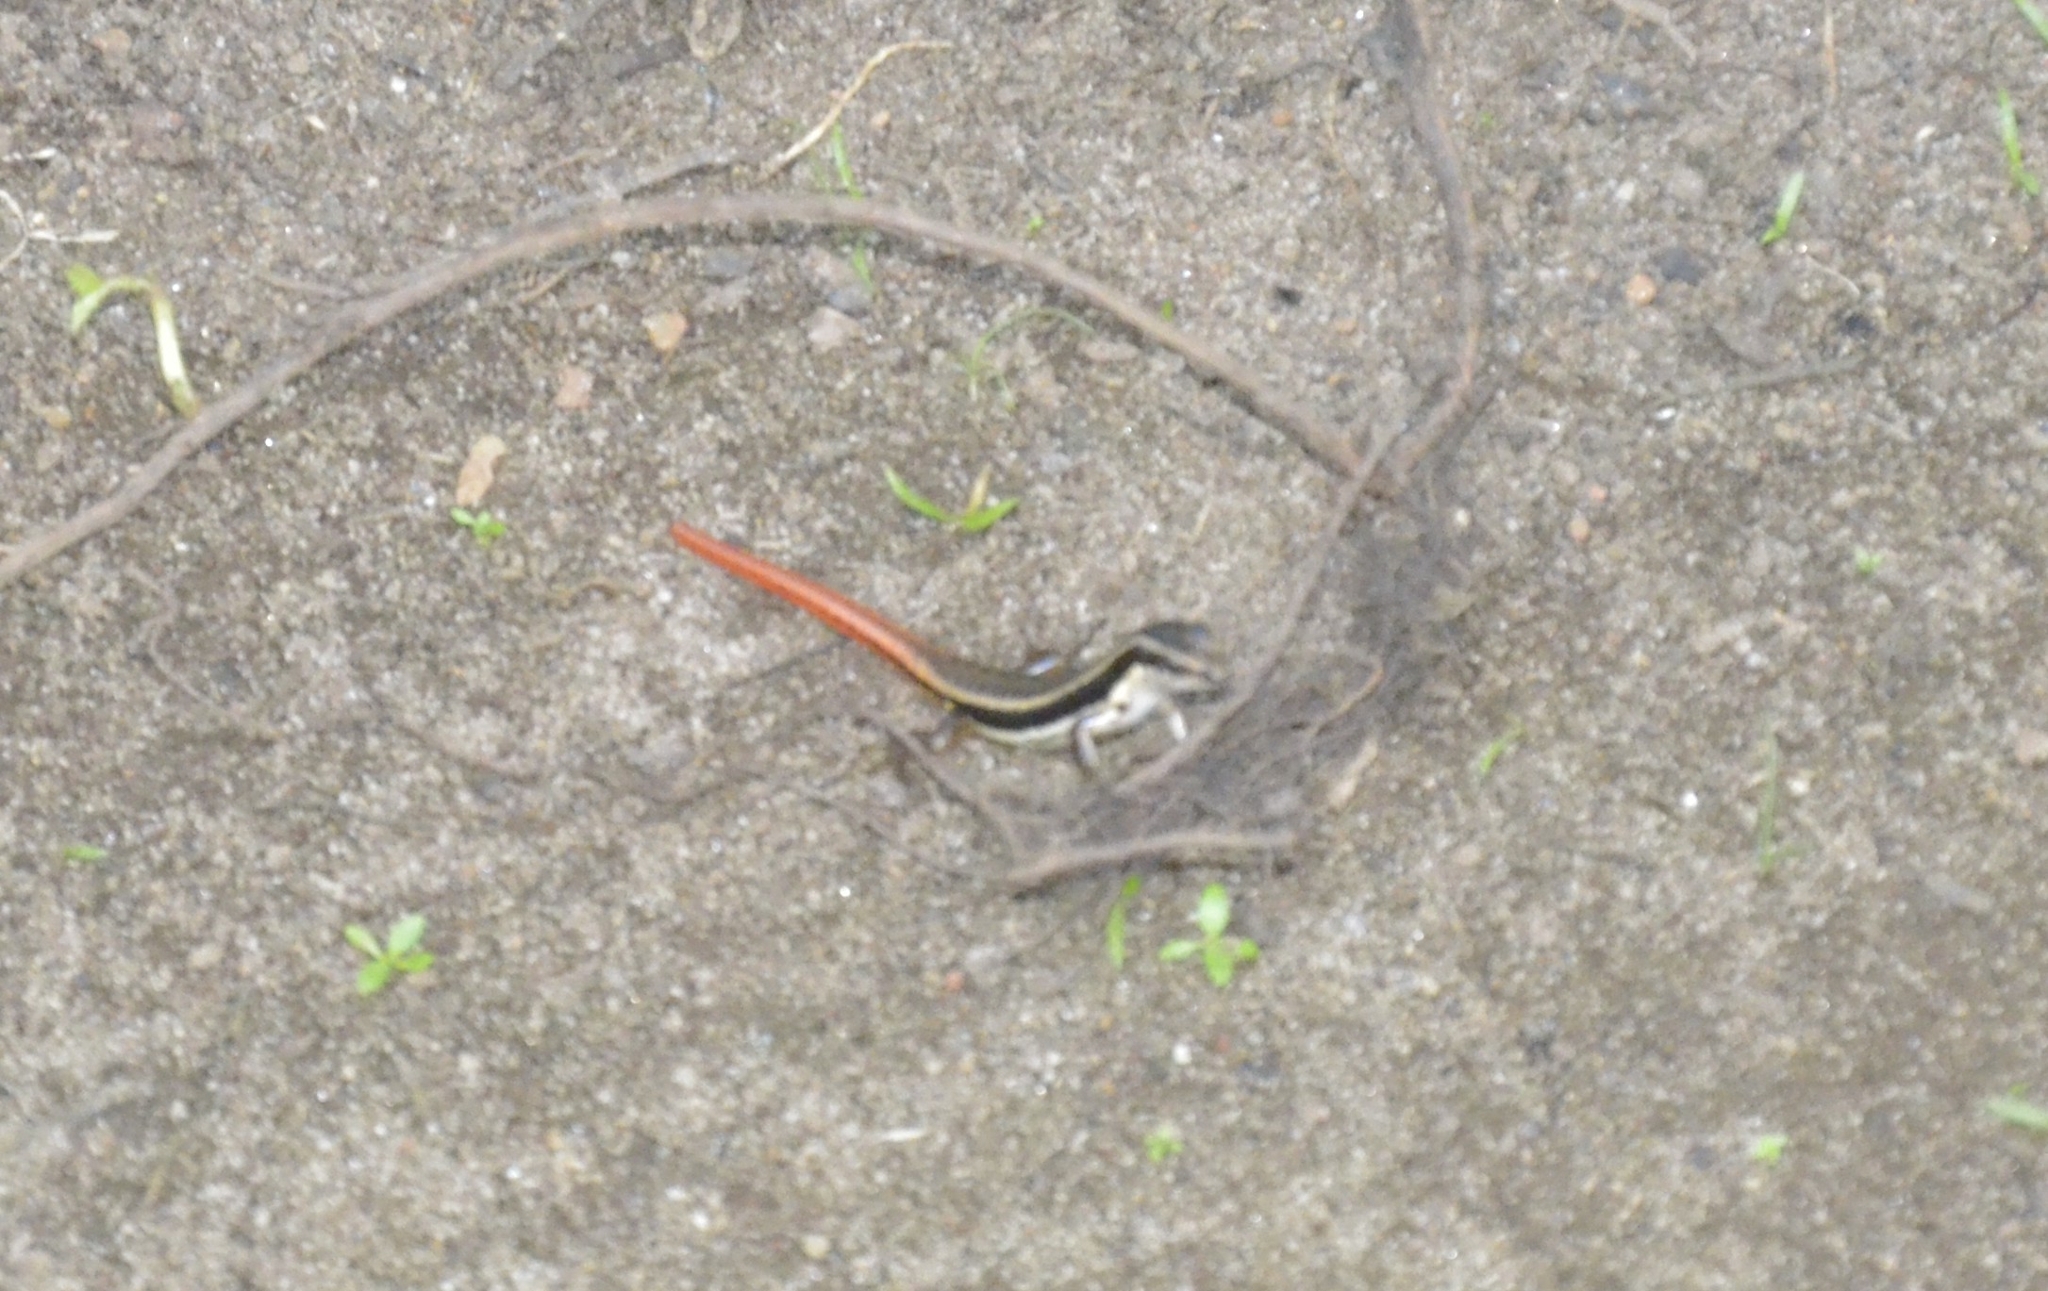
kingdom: Animalia
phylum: Chordata
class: Squamata
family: Scincidae
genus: Sphenomorphus
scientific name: Sphenomorphus dussumieri
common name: Dussumier's forest skink
